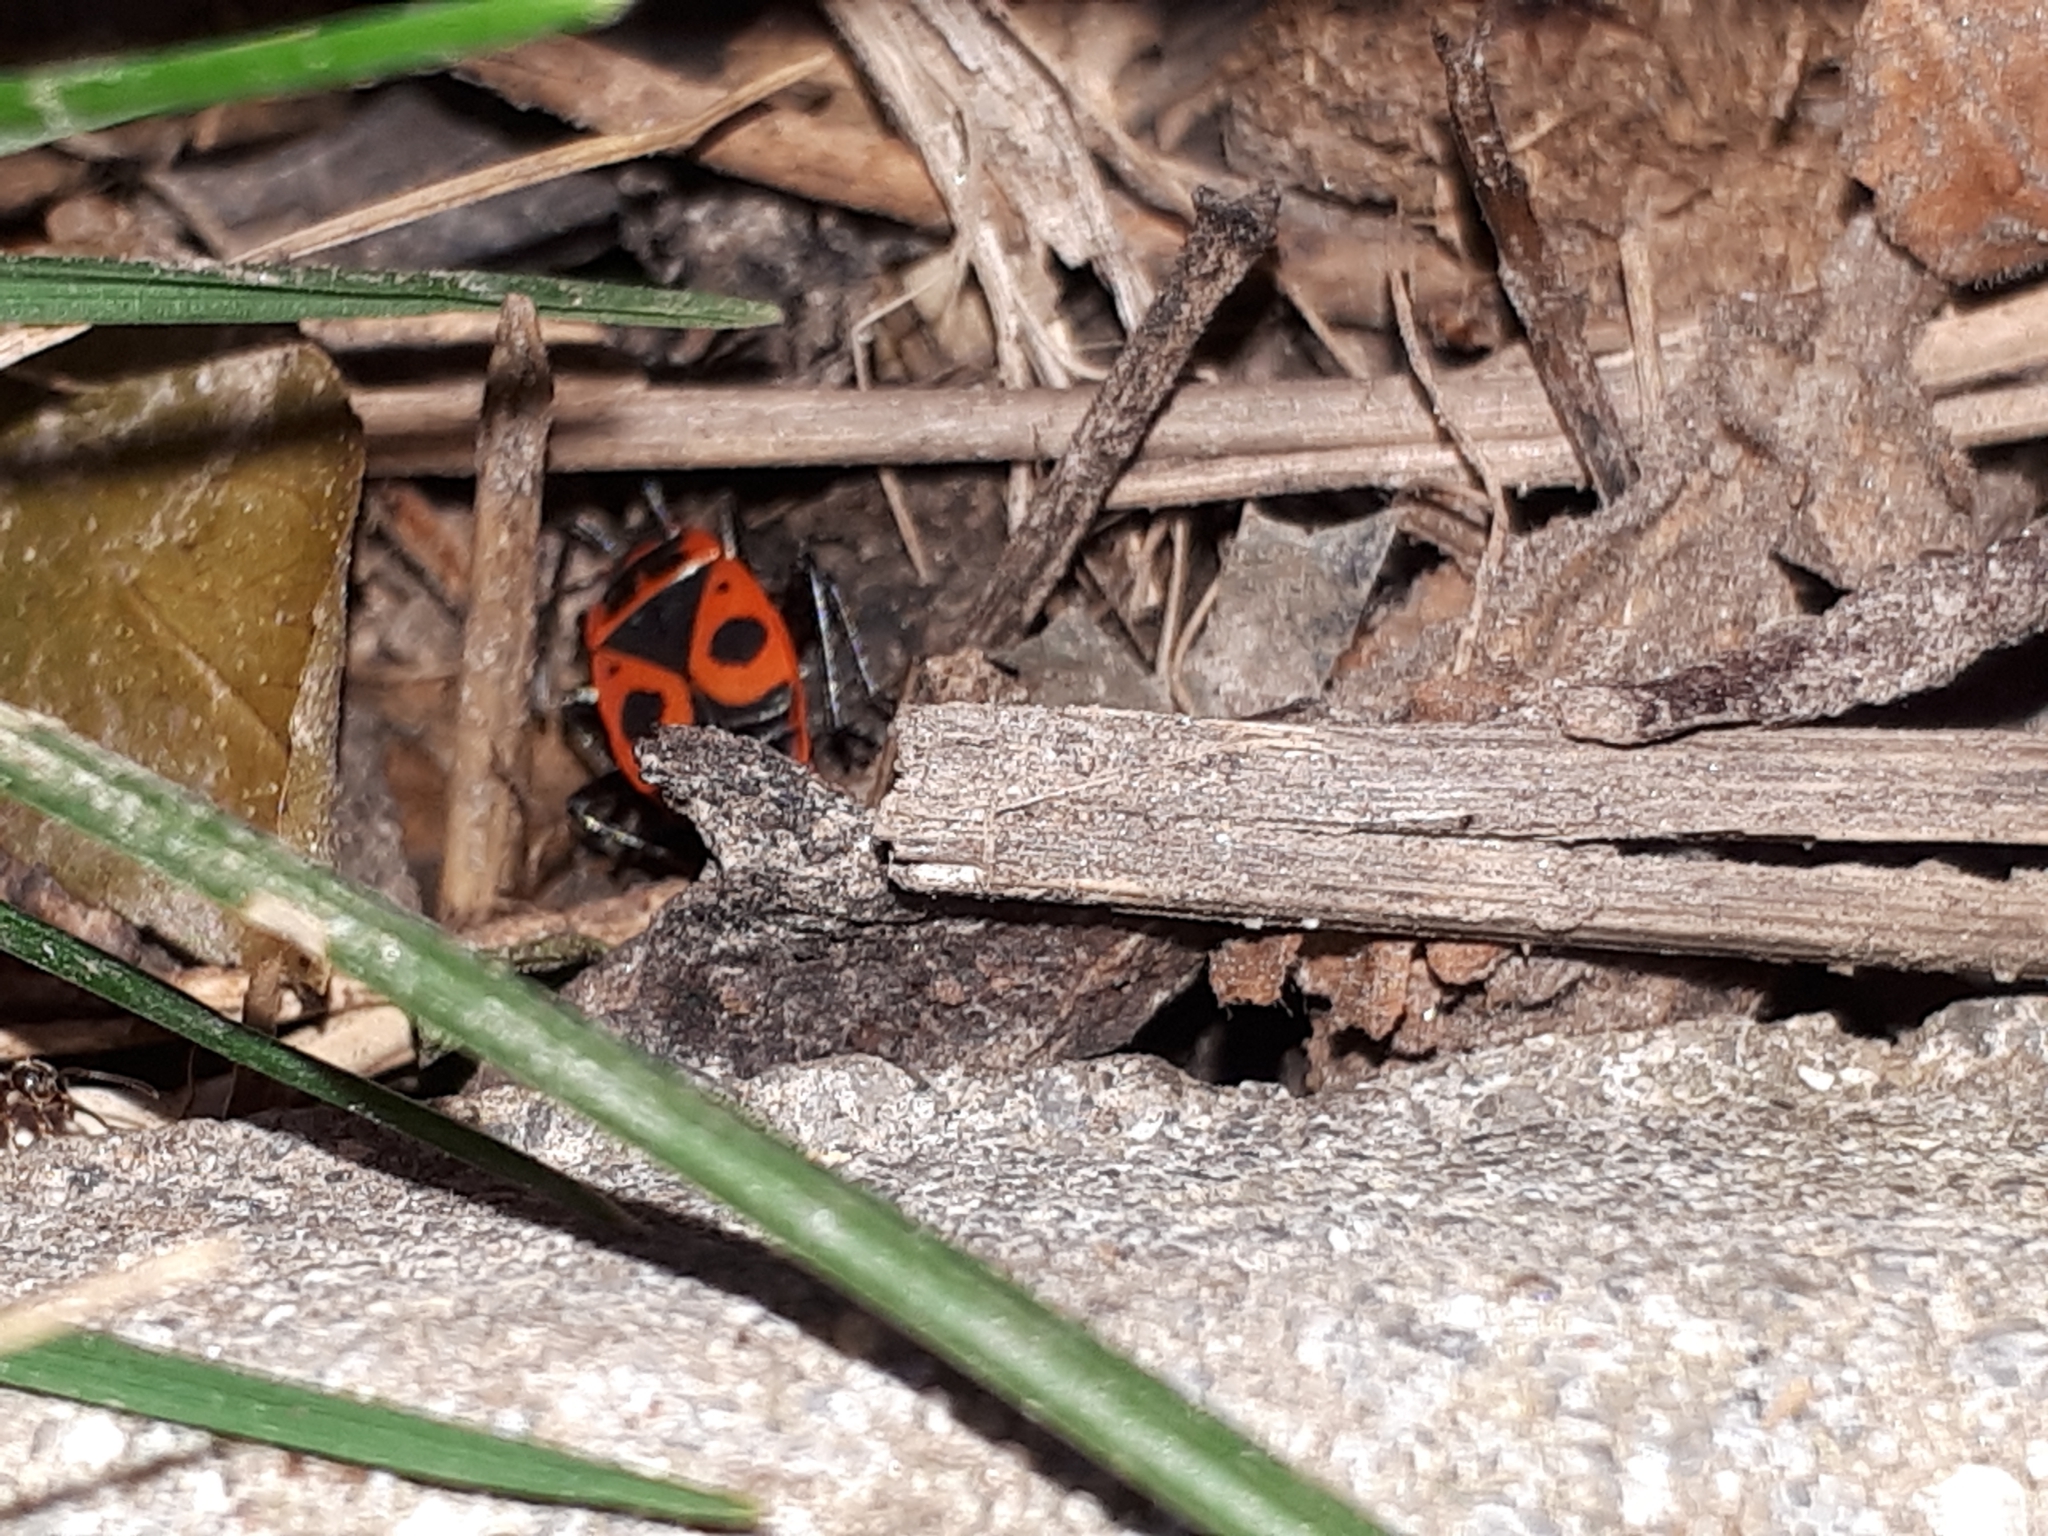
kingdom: Animalia
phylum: Arthropoda
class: Insecta
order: Hemiptera
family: Pyrrhocoridae
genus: Pyrrhocoris
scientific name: Pyrrhocoris apterus
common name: Firebug
